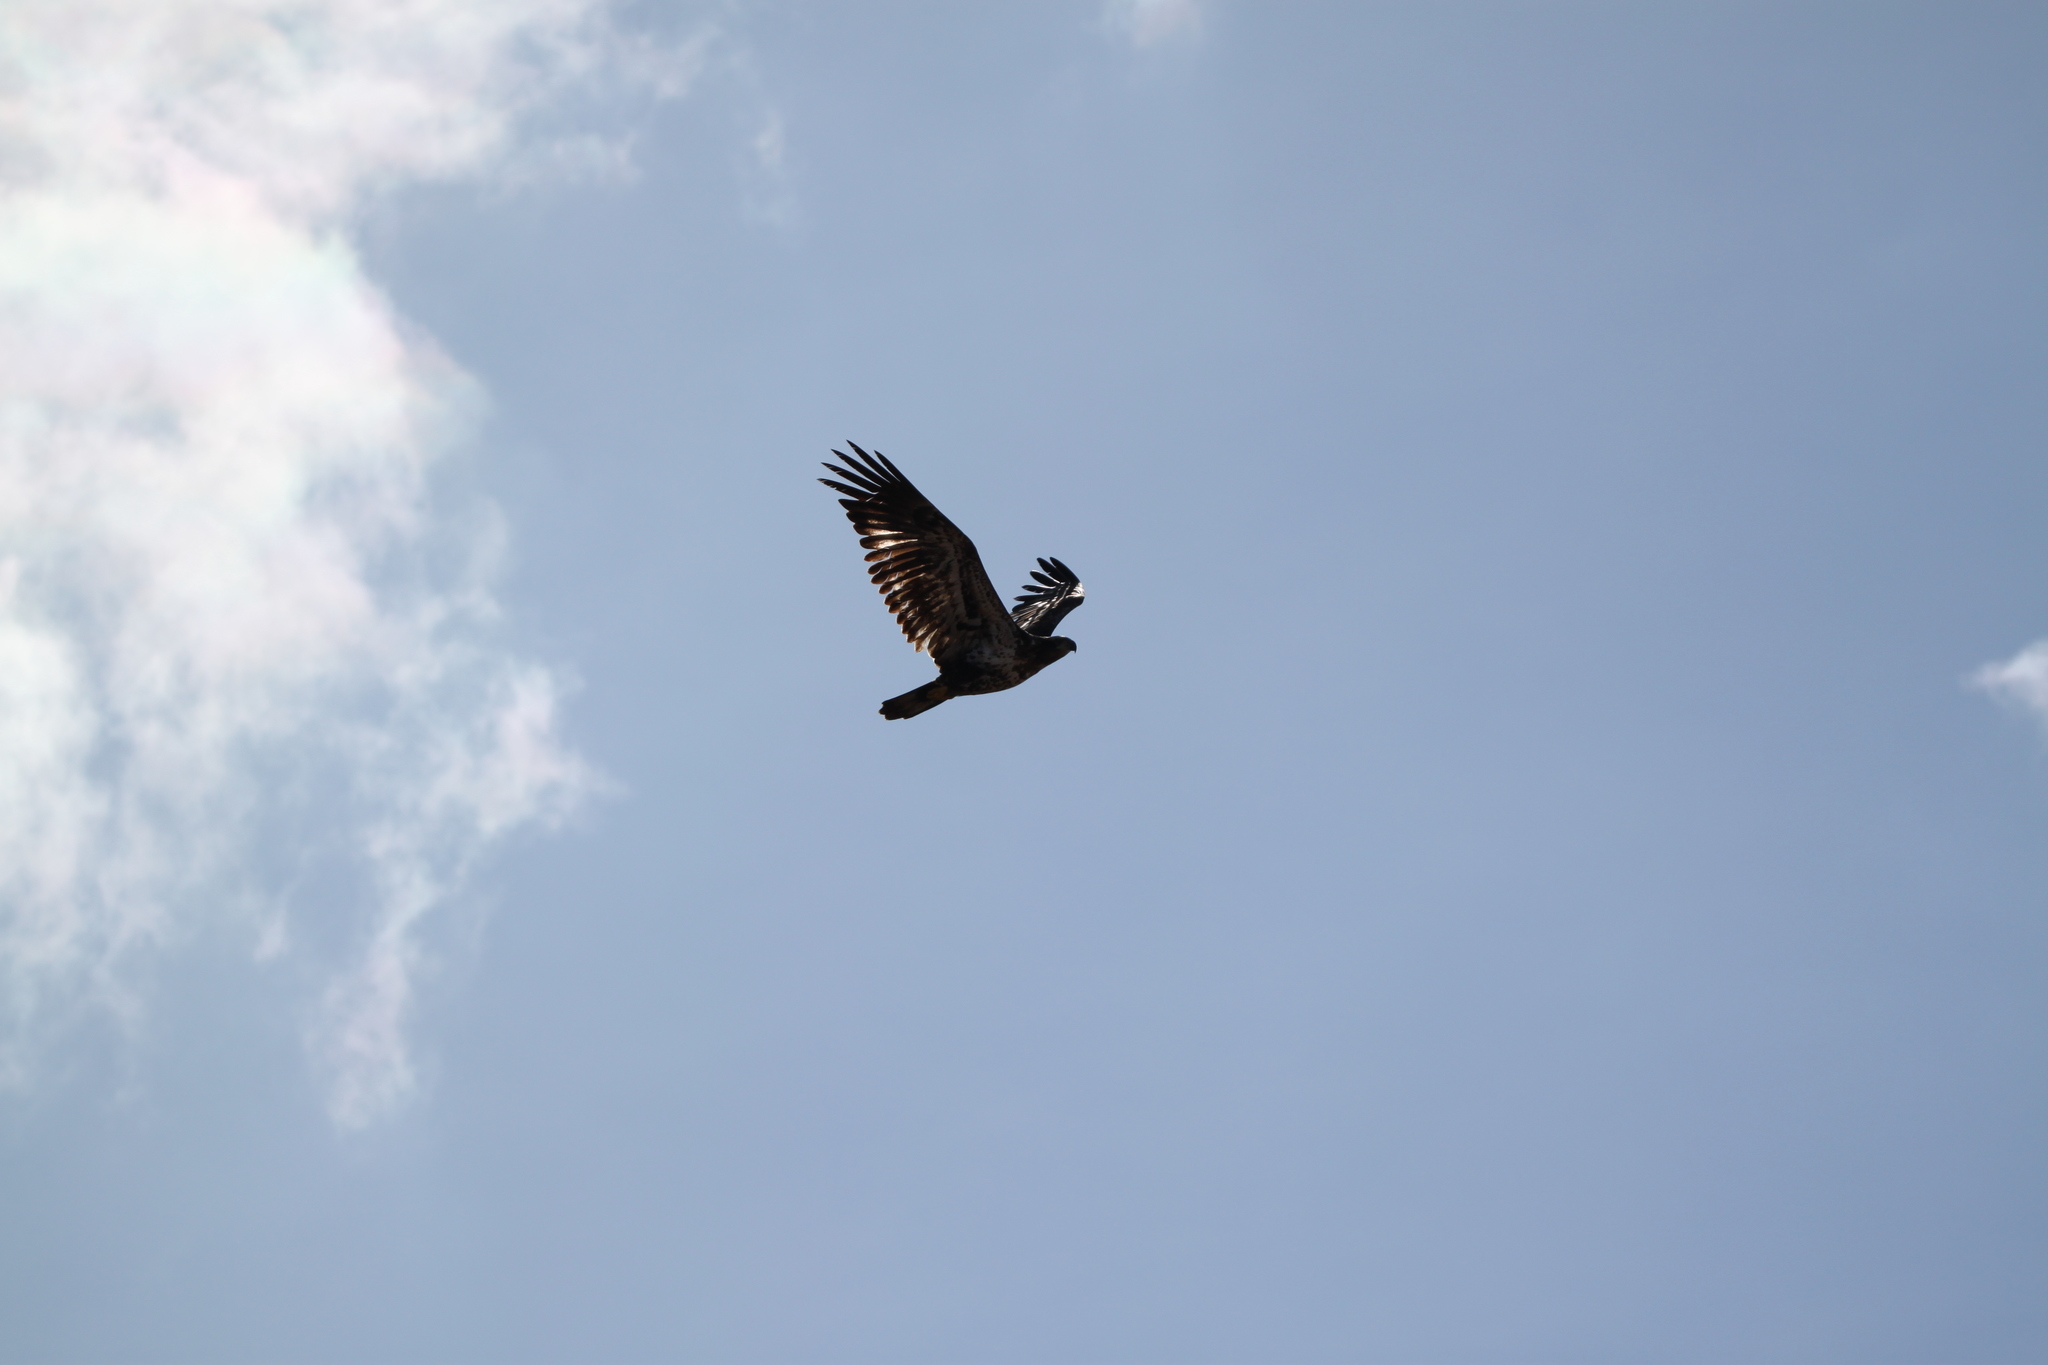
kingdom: Animalia
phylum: Chordata
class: Aves
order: Accipitriformes
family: Accipitridae
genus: Haliaeetus
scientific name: Haliaeetus leucocephalus
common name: Bald eagle
